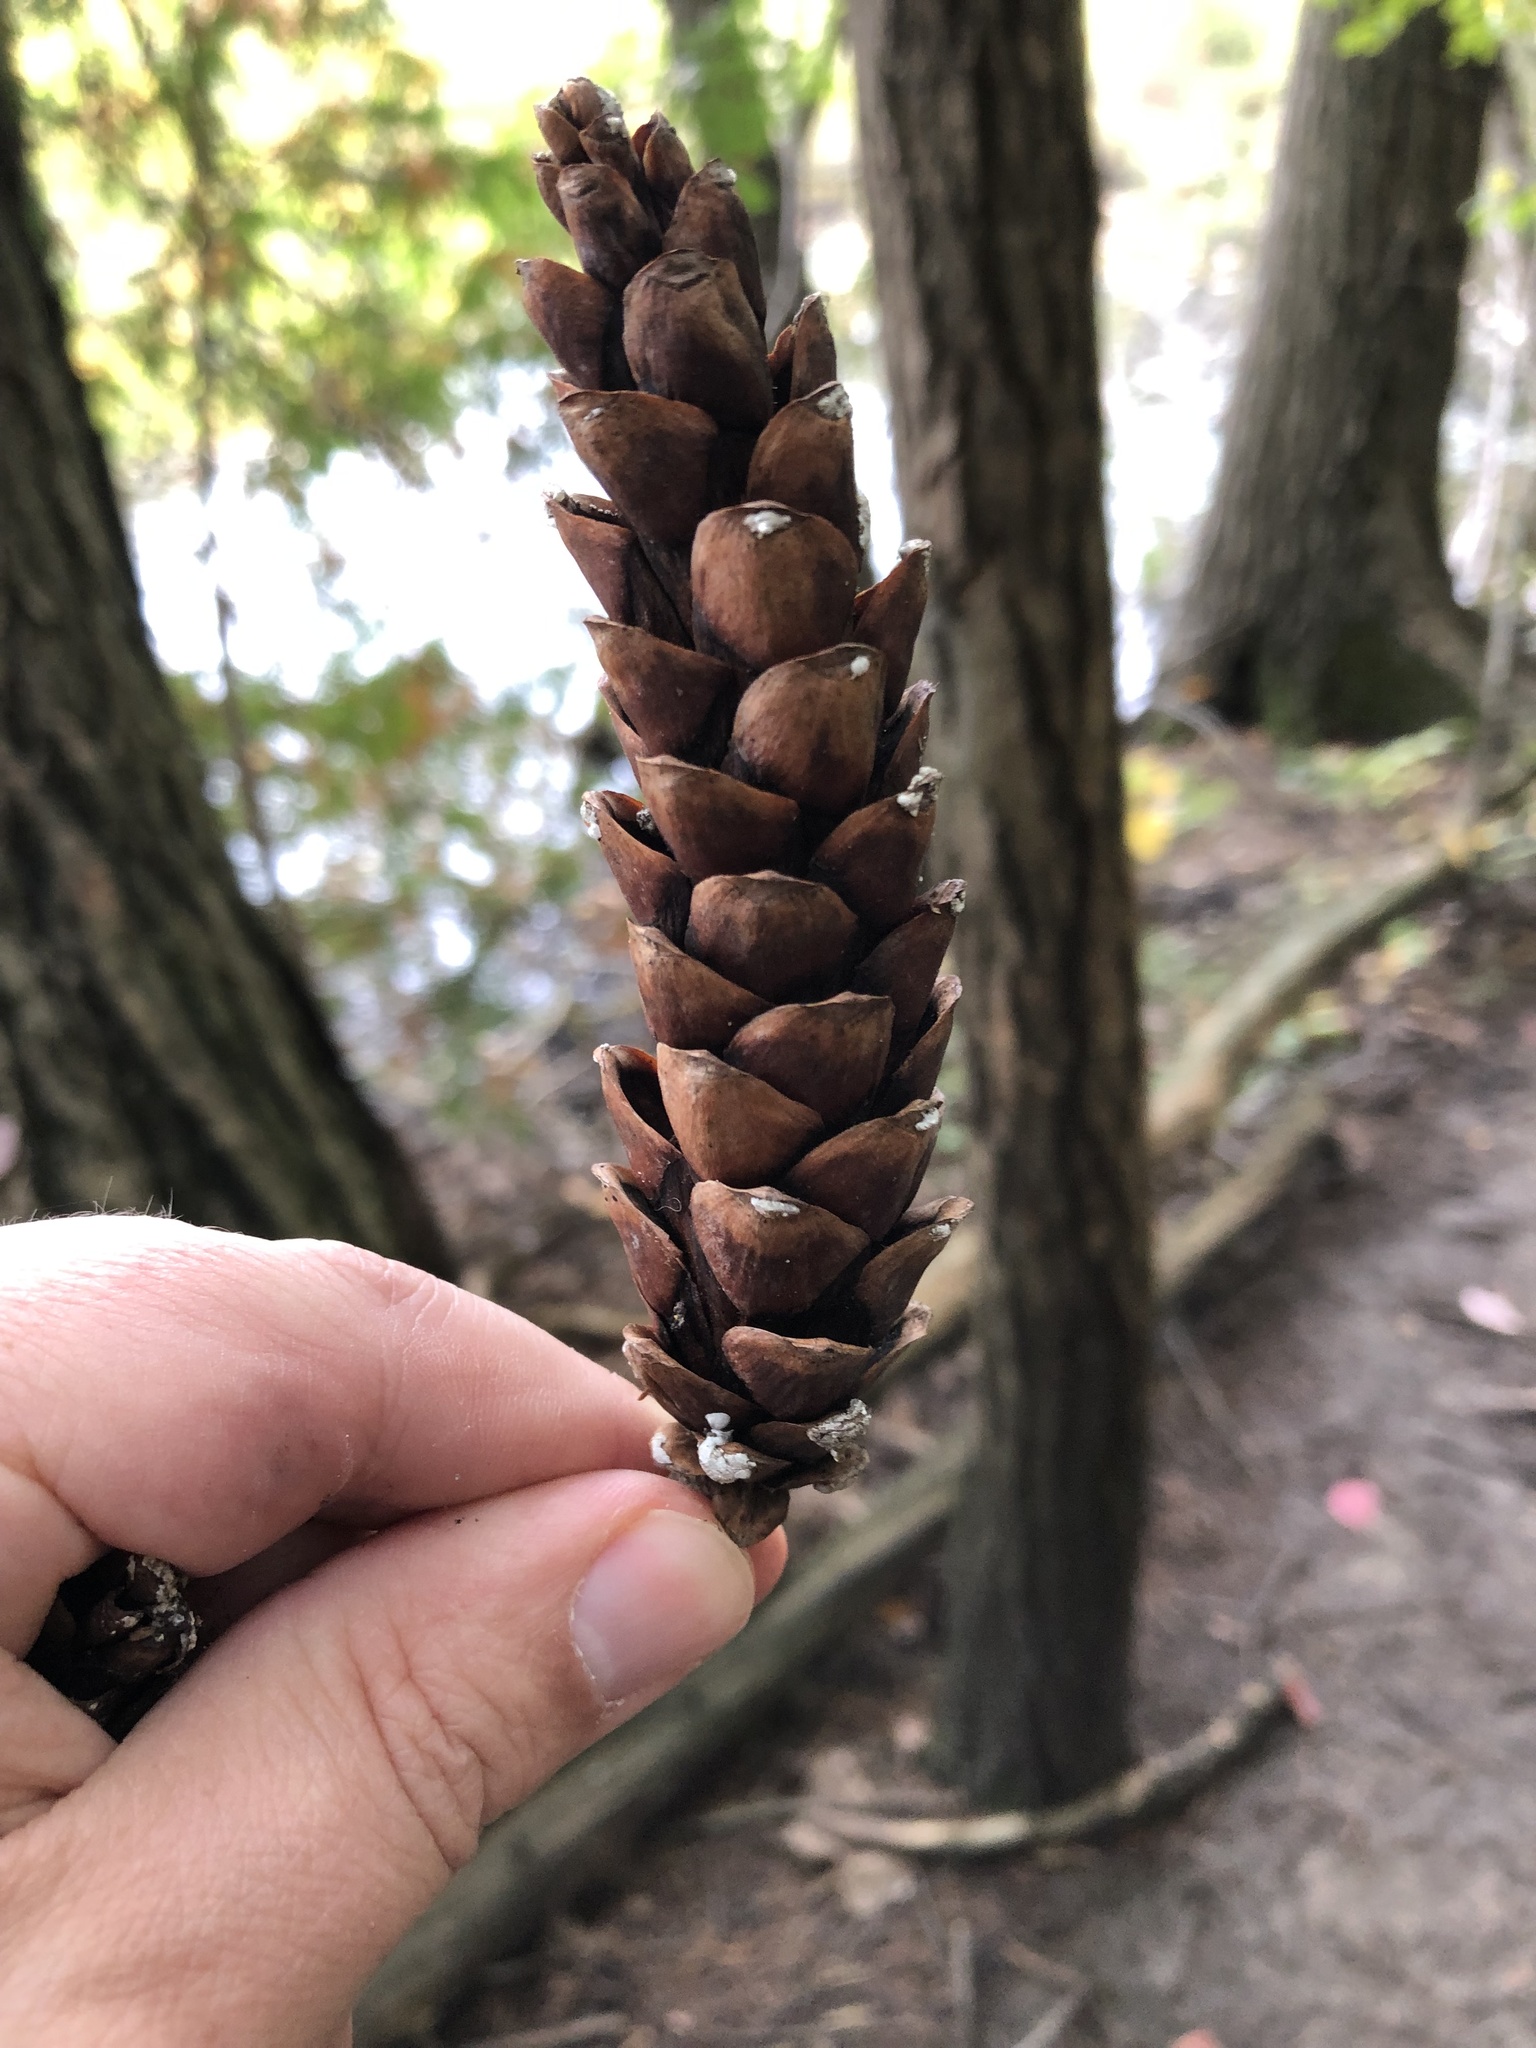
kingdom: Plantae
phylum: Tracheophyta
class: Pinopsida
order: Pinales
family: Pinaceae
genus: Pinus
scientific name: Pinus strobus
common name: Weymouth pine
